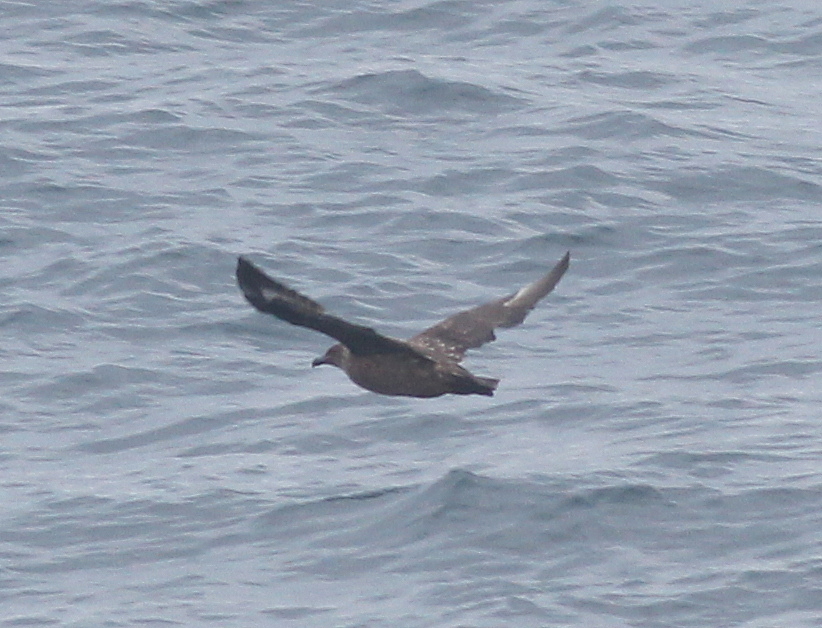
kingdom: Animalia
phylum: Chordata
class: Aves
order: Charadriiformes
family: Stercorariidae
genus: Stercorarius
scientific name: Stercorarius antarcticus
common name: Brown skua
